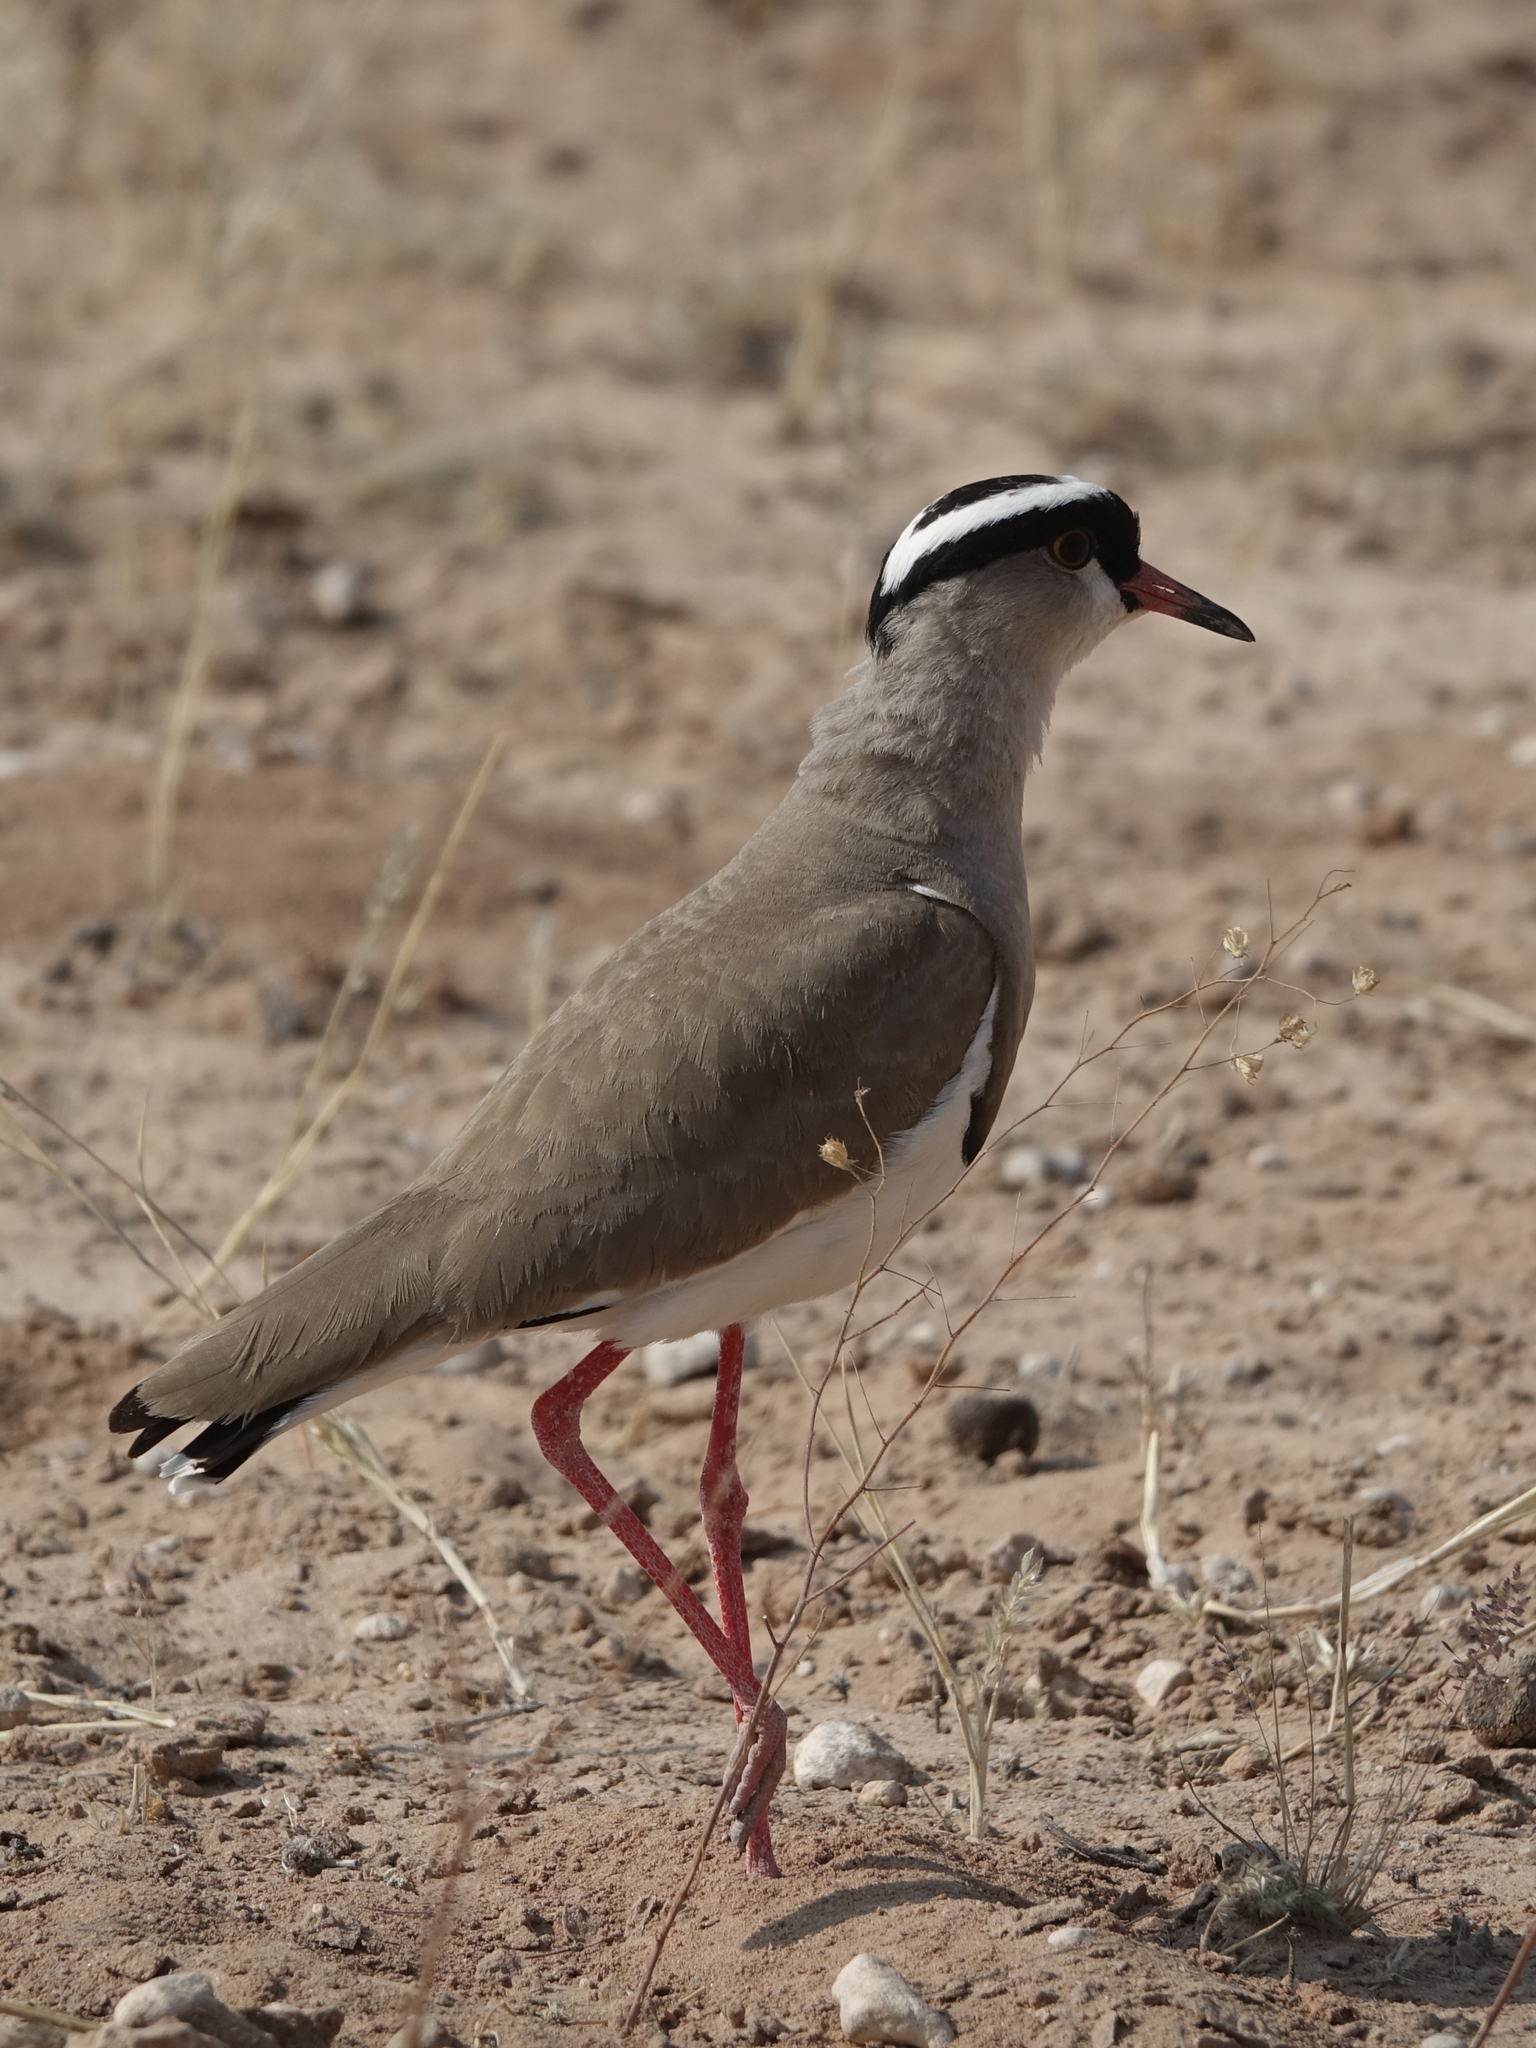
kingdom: Animalia
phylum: Chordata
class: Aves
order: Charadriiformes
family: Charadriidae
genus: Vanellus
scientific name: Vanellus coronatus
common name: Crowned lapwing
